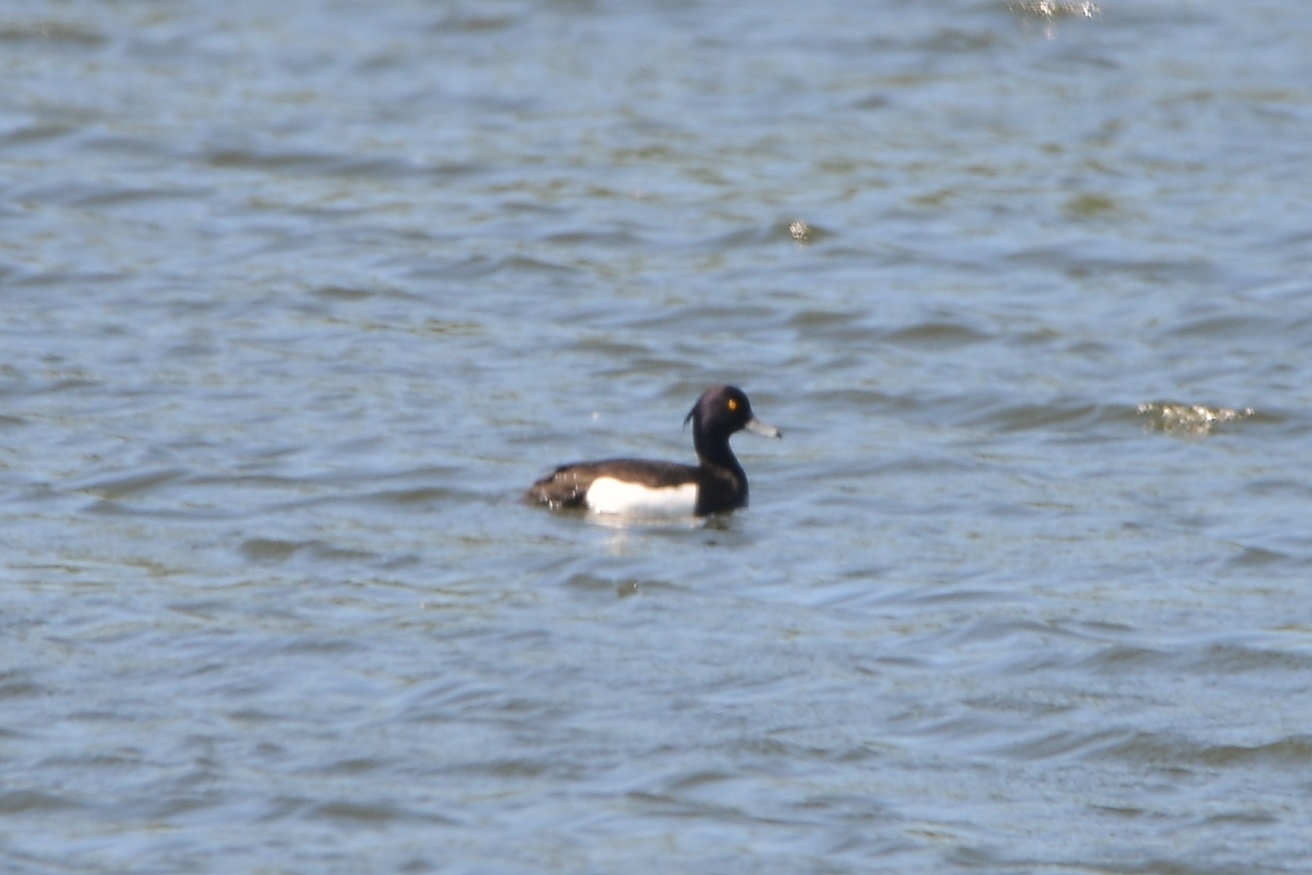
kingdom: Animalia
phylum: Chordata
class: Aves
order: Anseriformes
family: Anatidae
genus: Aythya
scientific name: Aythya fuligula
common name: Tufted duck
